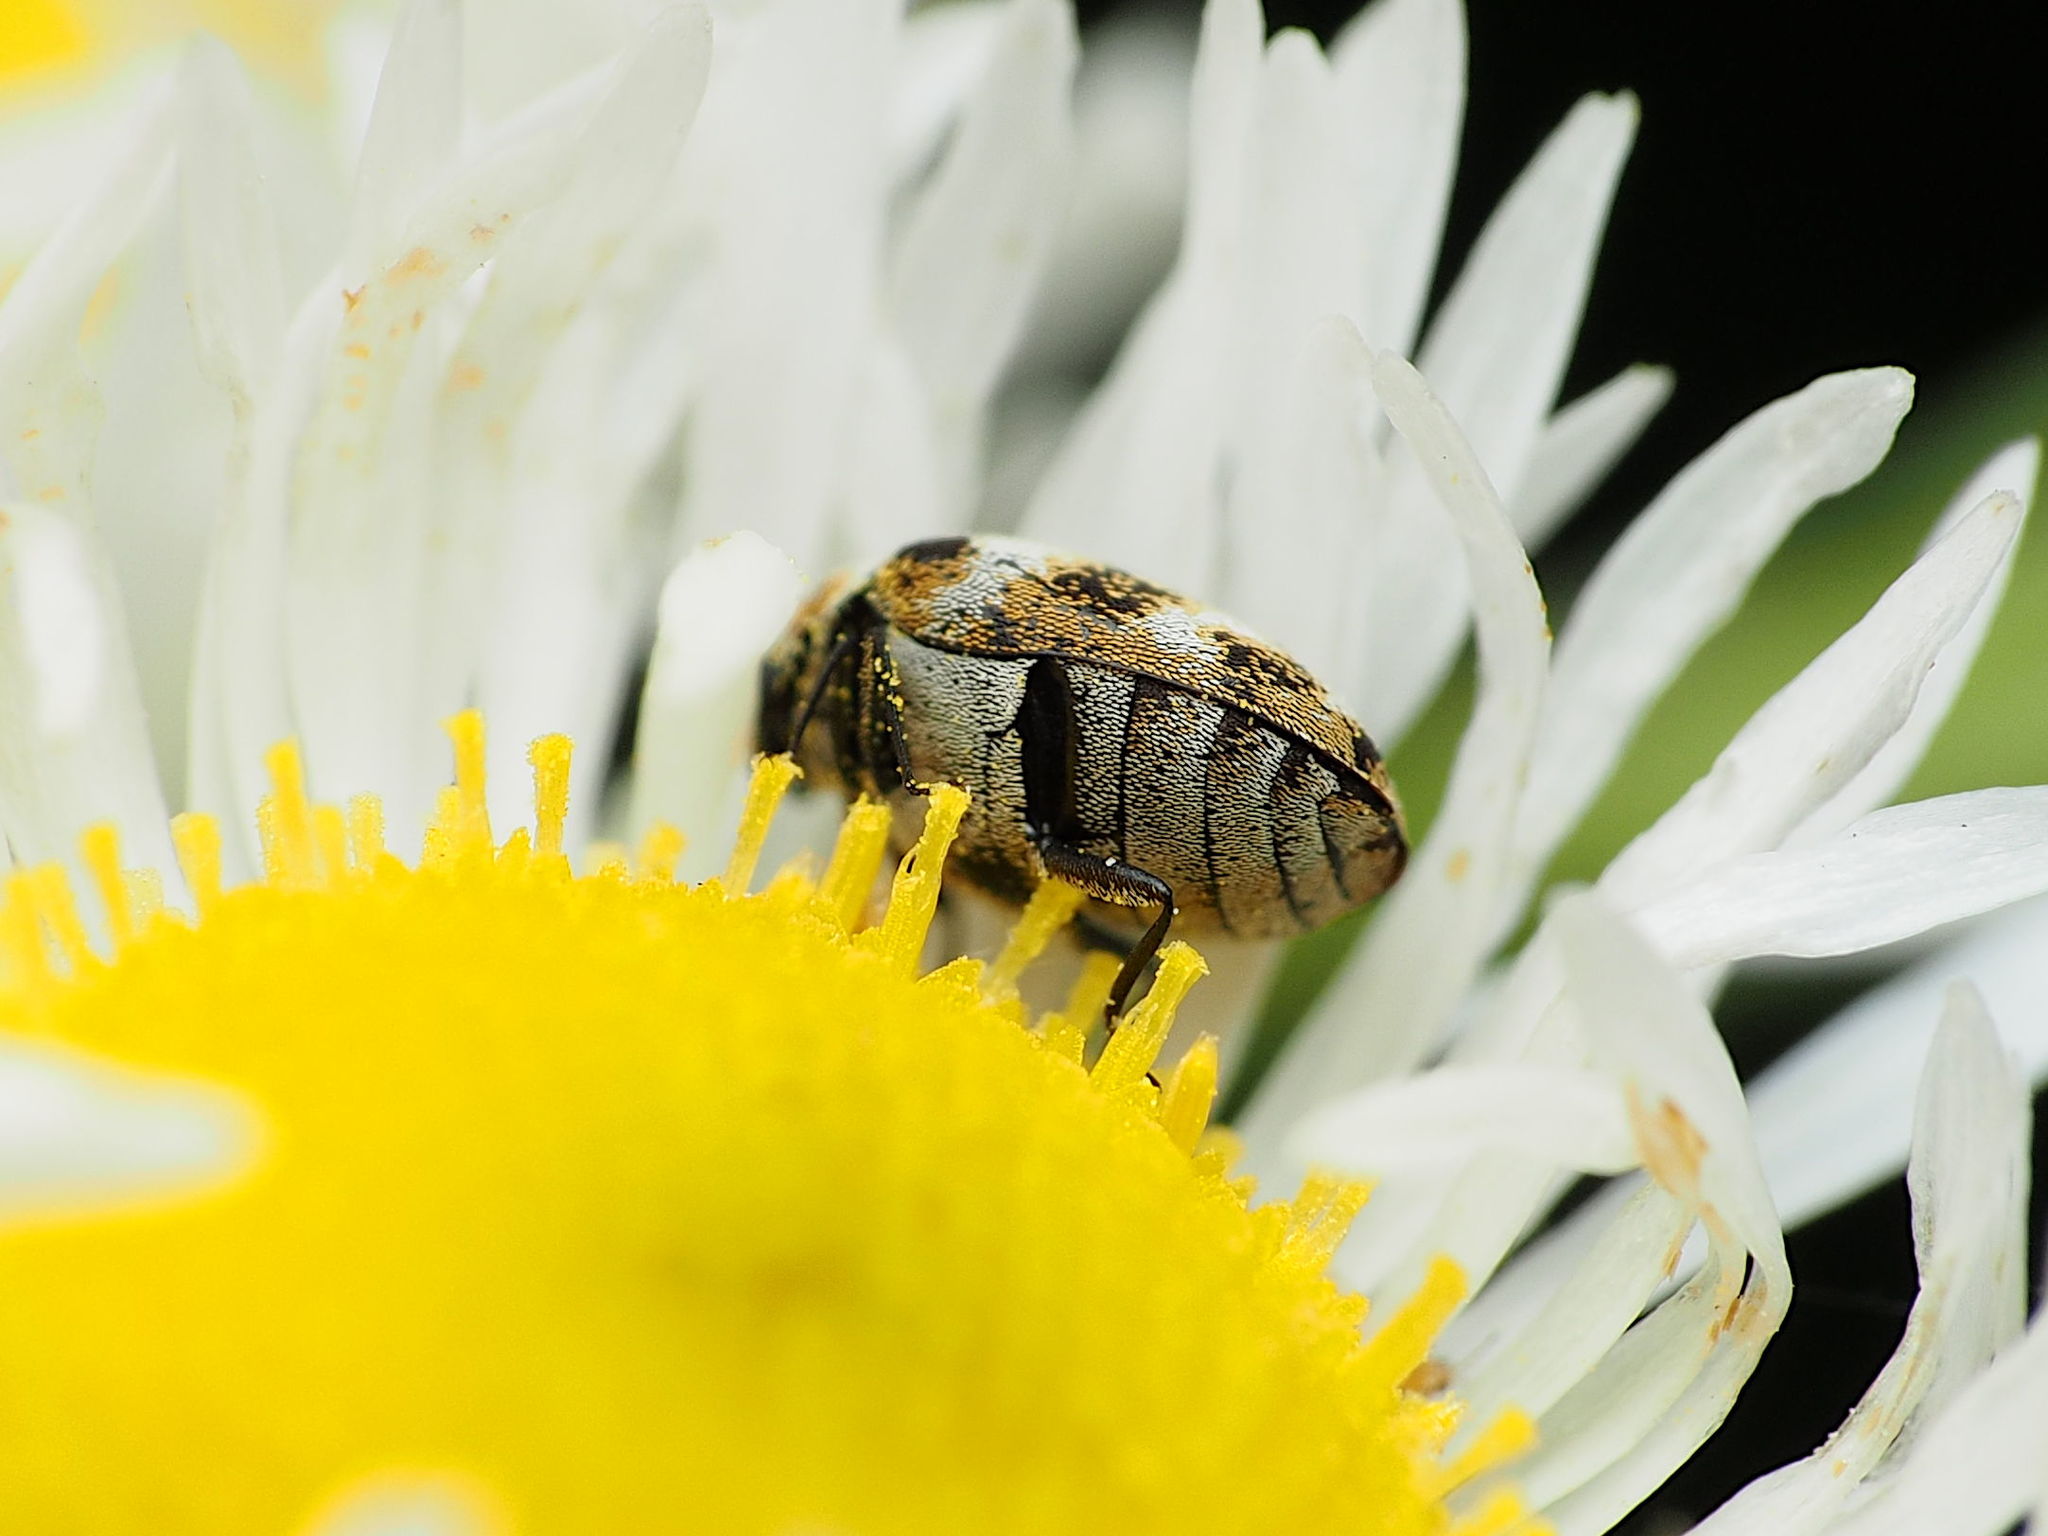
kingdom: Animalia
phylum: Arthropoda
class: Insecta
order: Coleoptera
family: Dermestidae
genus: Anthrenus
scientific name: Anthrenus verbasci
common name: Varied carpet beetle
